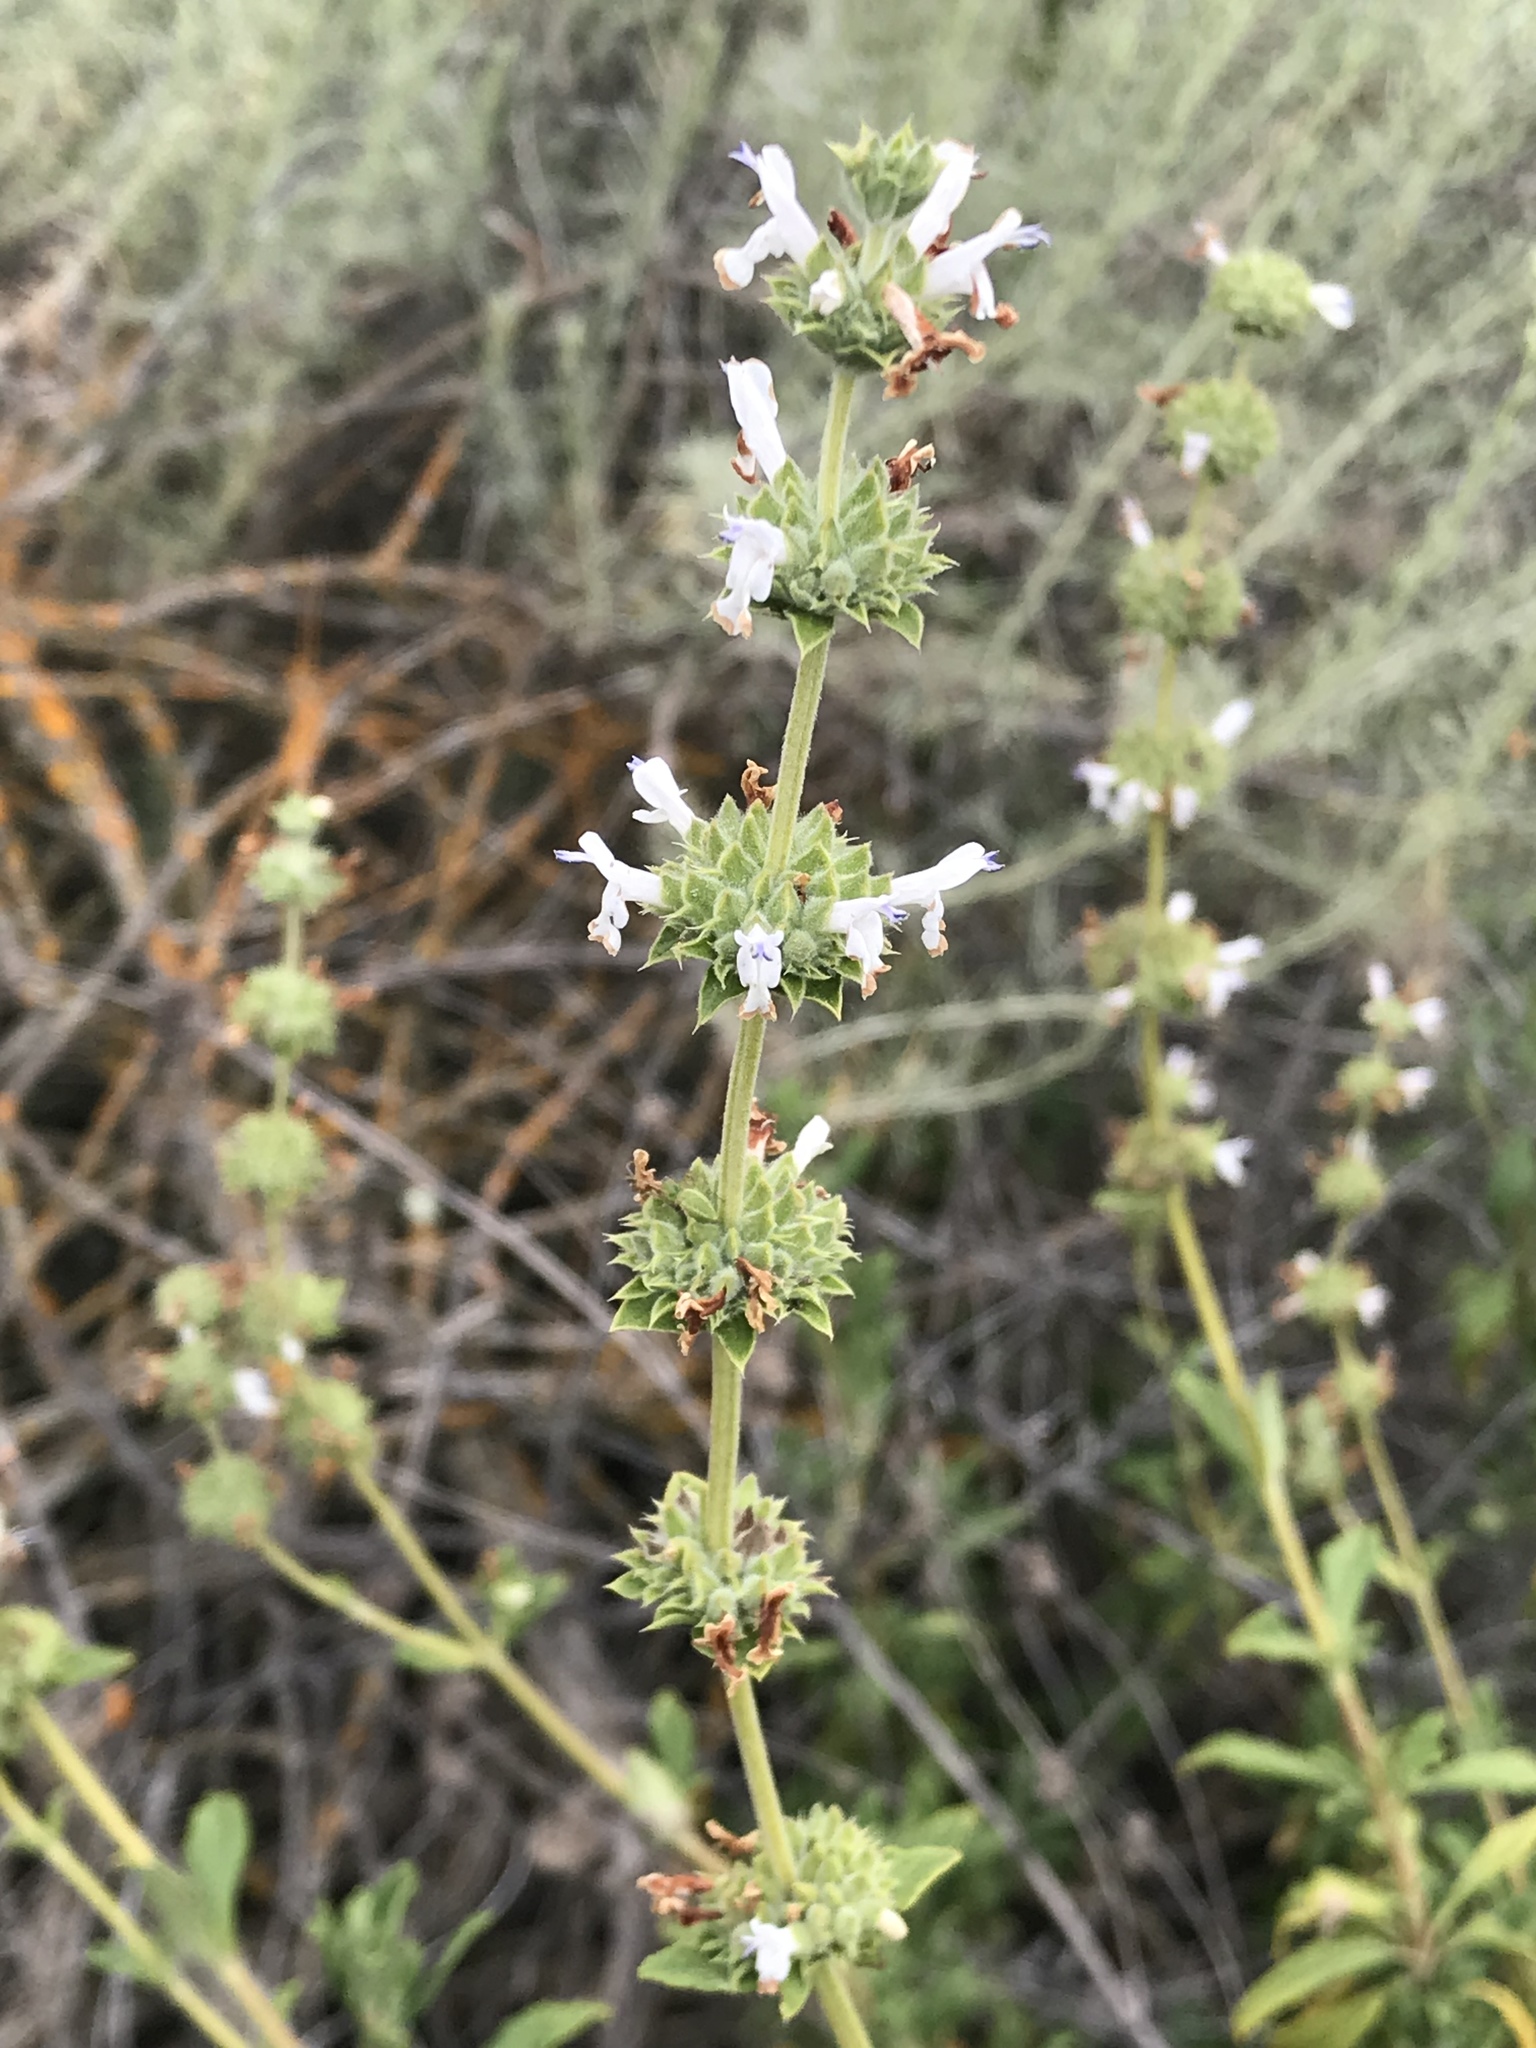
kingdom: Plantae
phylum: Tracheophyta
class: Magnoliopsida
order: Lamiales
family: Lamiaceae
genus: Salvia
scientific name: Salvia mellifera
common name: Black sage
